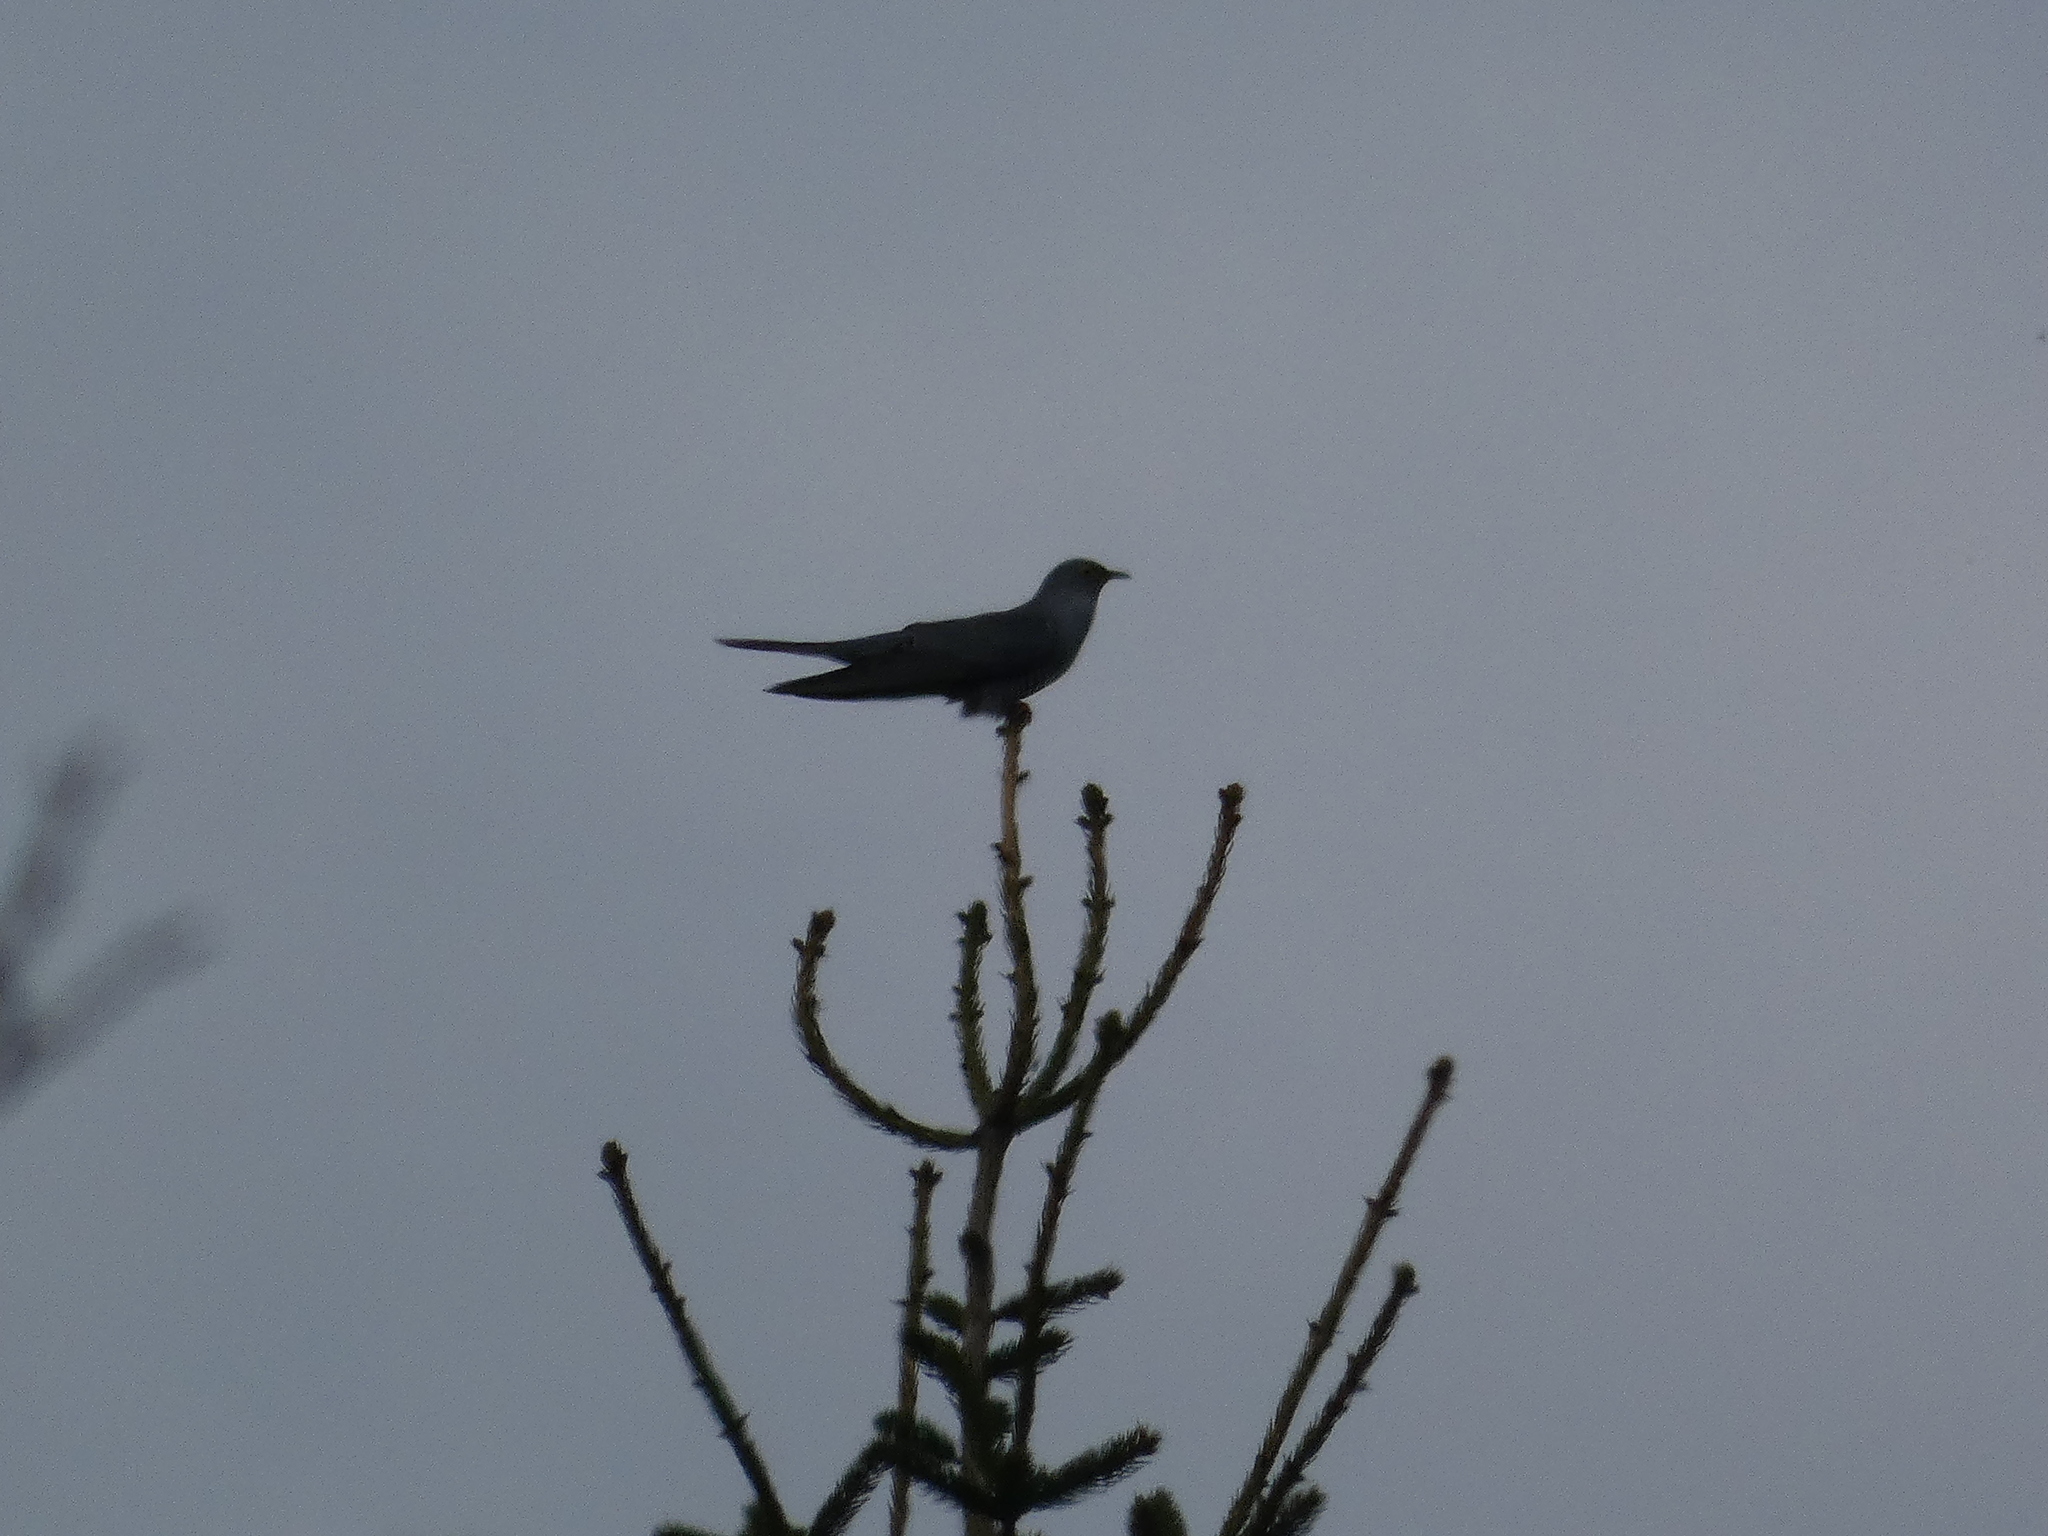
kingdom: Animalia
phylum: Chordata
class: Aves
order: Cuculiformes
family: Cuculidae
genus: Cuculus
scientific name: Cuculus canorus
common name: Common cuckoo
